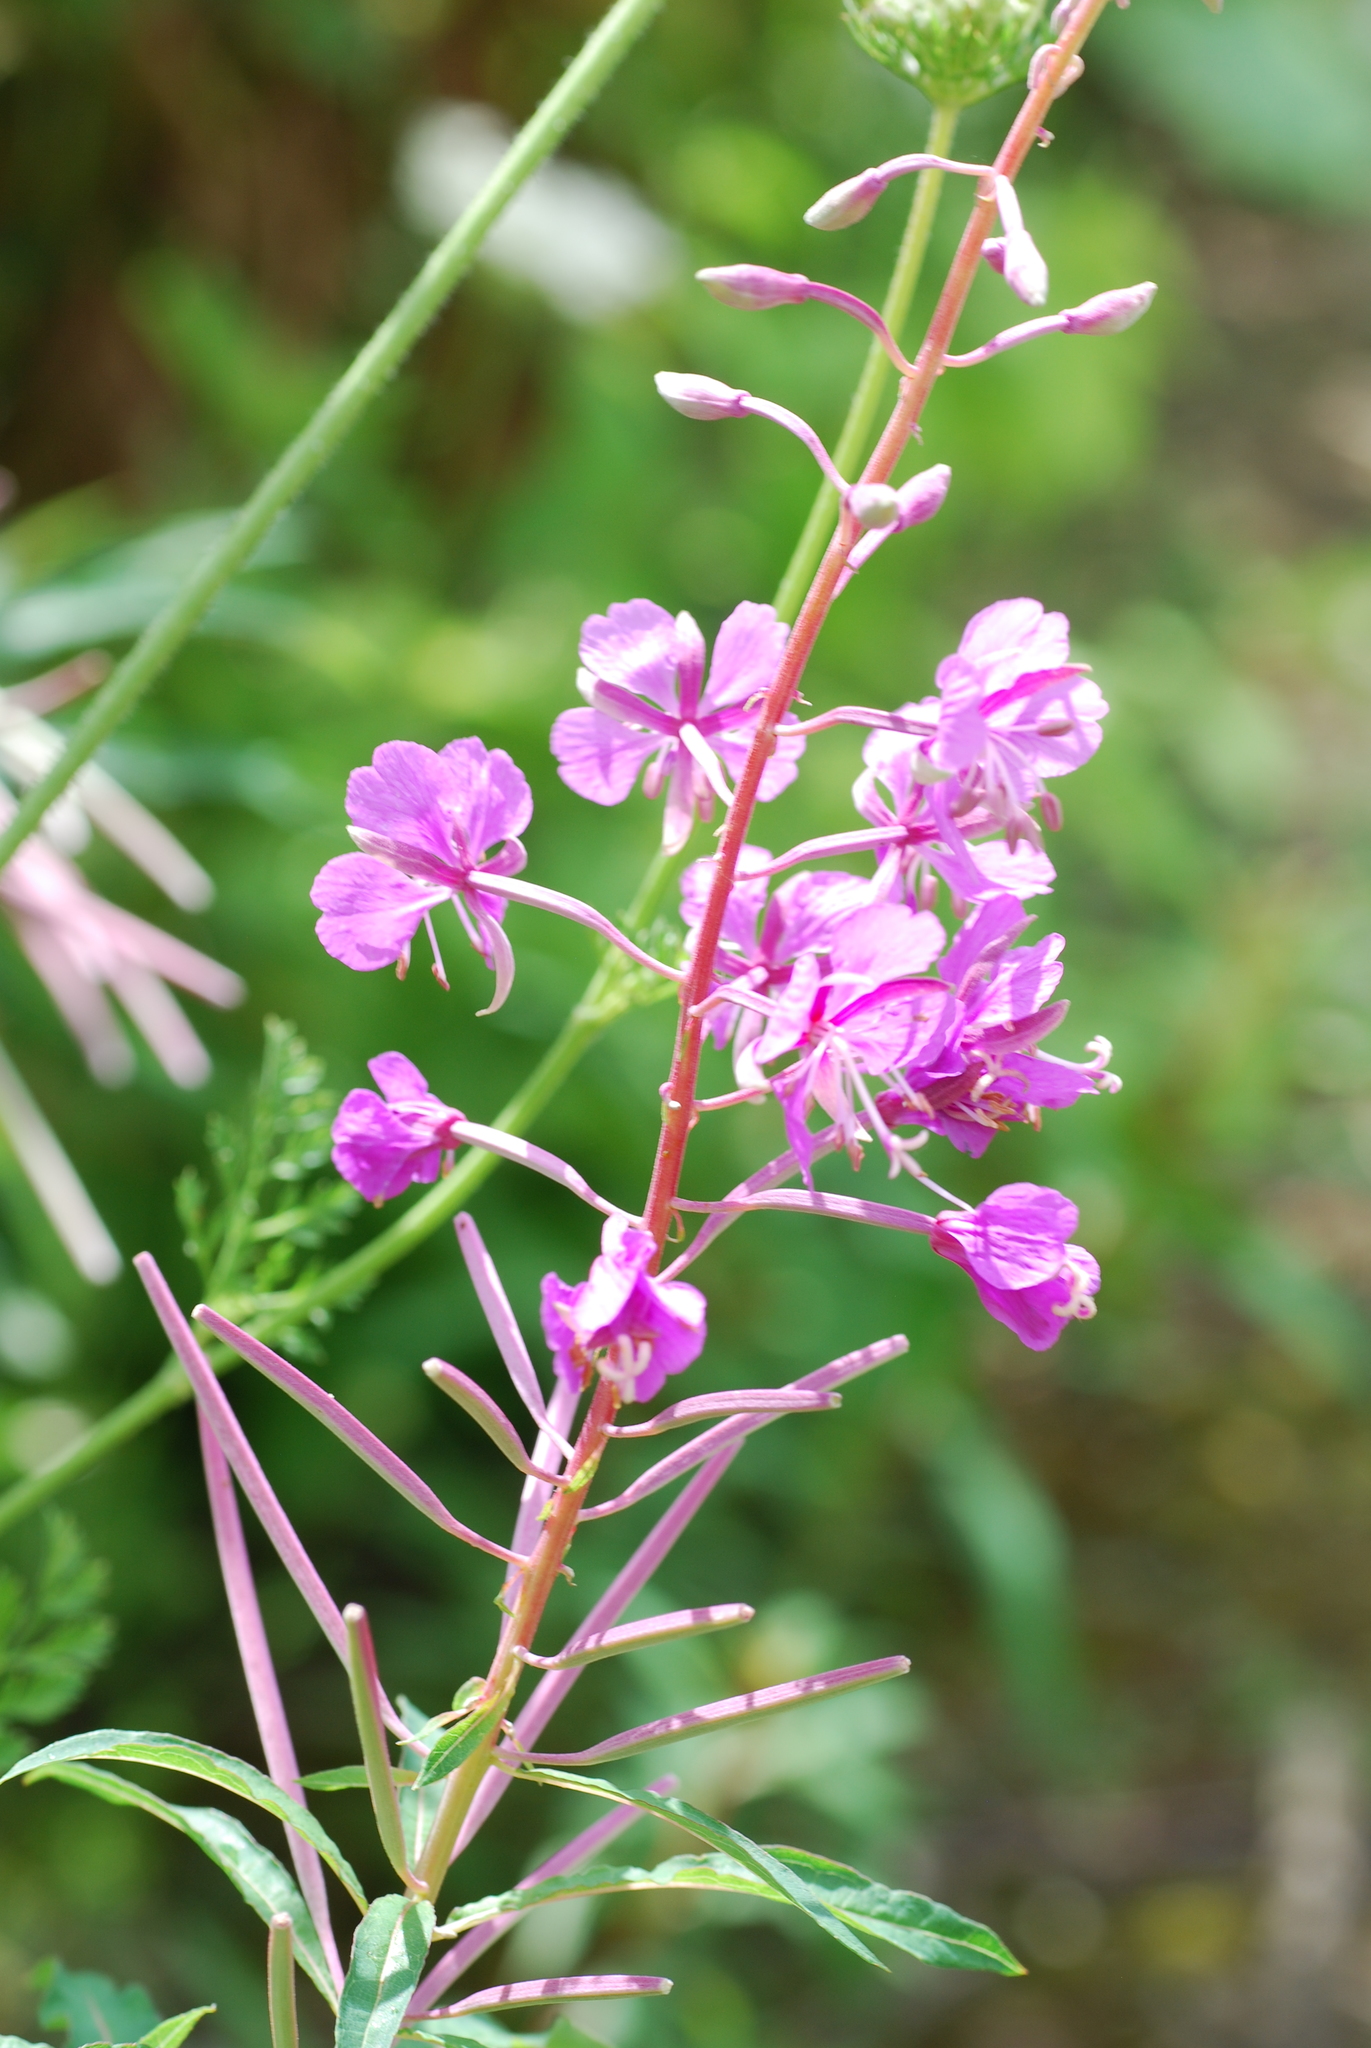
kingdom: Plantae
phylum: Tracheophyta
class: Magnoliopsida
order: Myrtales
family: Onagraceae
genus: Chamaenerion
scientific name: Chamaenerion angustifolium
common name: Fireweed
